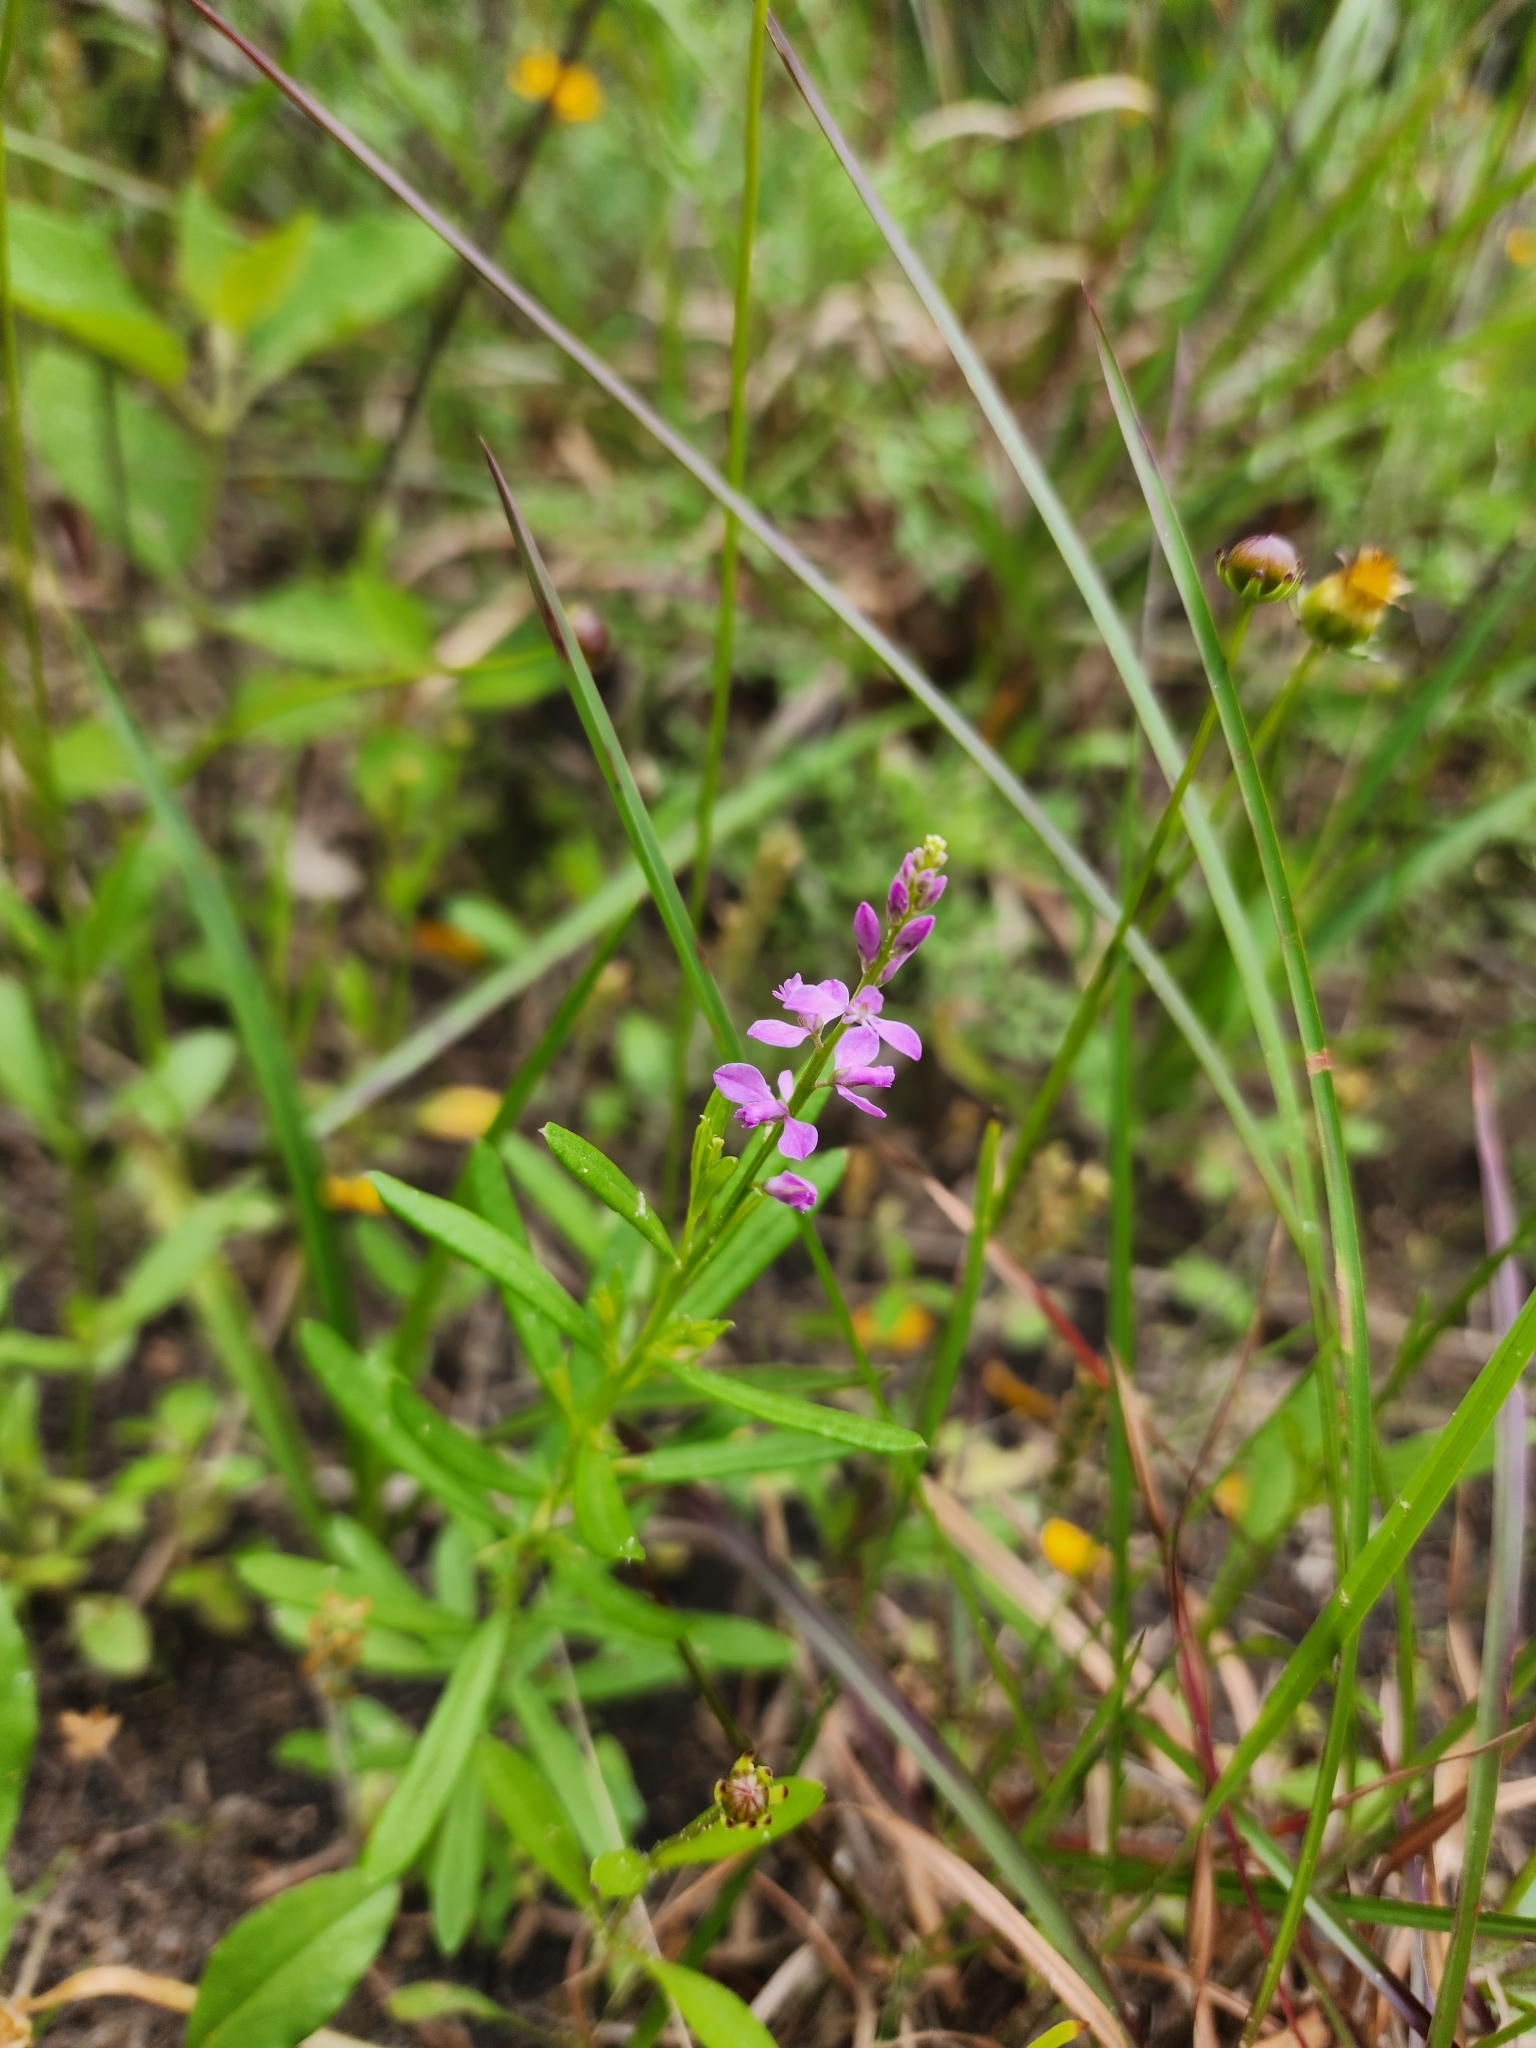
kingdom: Plantae
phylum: Tracheophyta
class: Magnoliopsida
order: Fabales
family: Polygalaceae
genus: Polygala
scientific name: Polygala polygama
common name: Bitter milkwort
